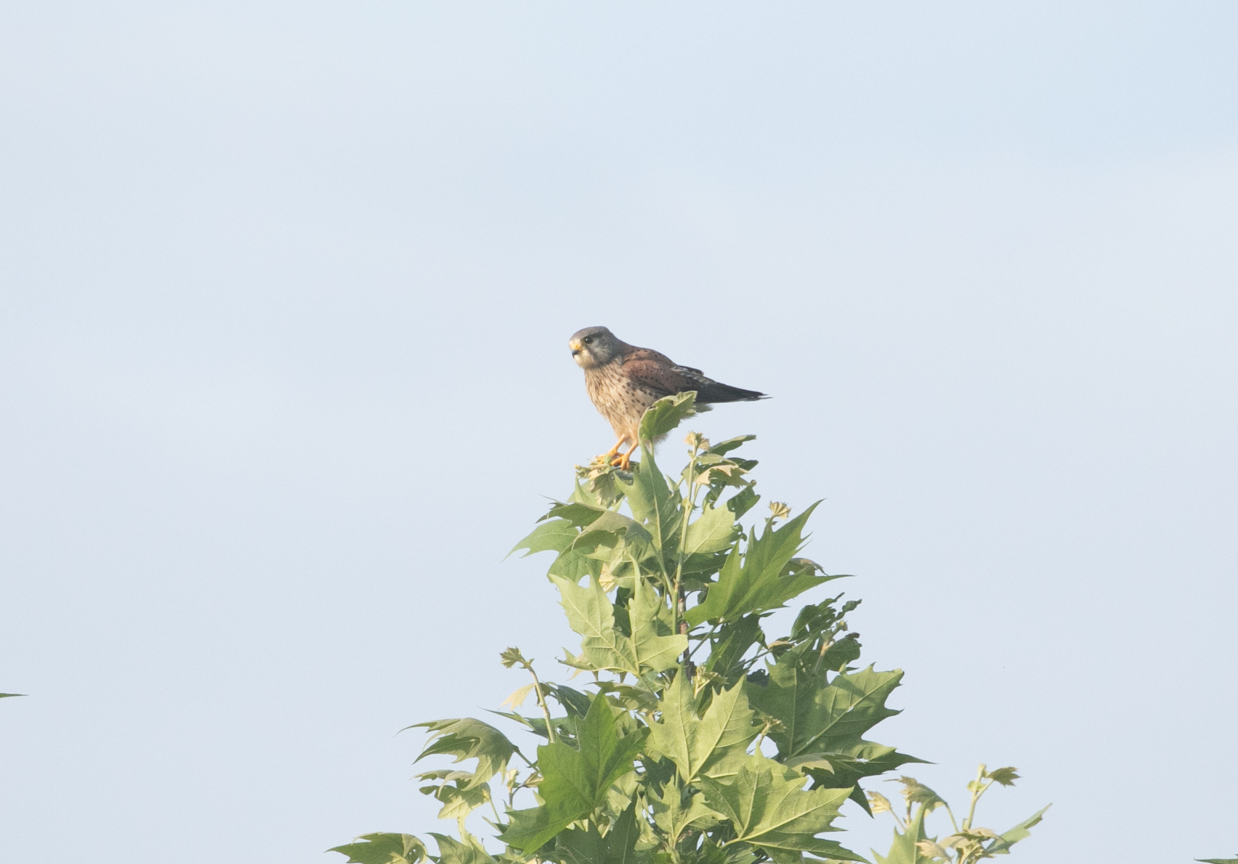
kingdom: Animalia
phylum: Chordata
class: Aves
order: Falconiformes
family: Falconidae
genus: Falco
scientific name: Falco tinnunculus
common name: Common kestrel
